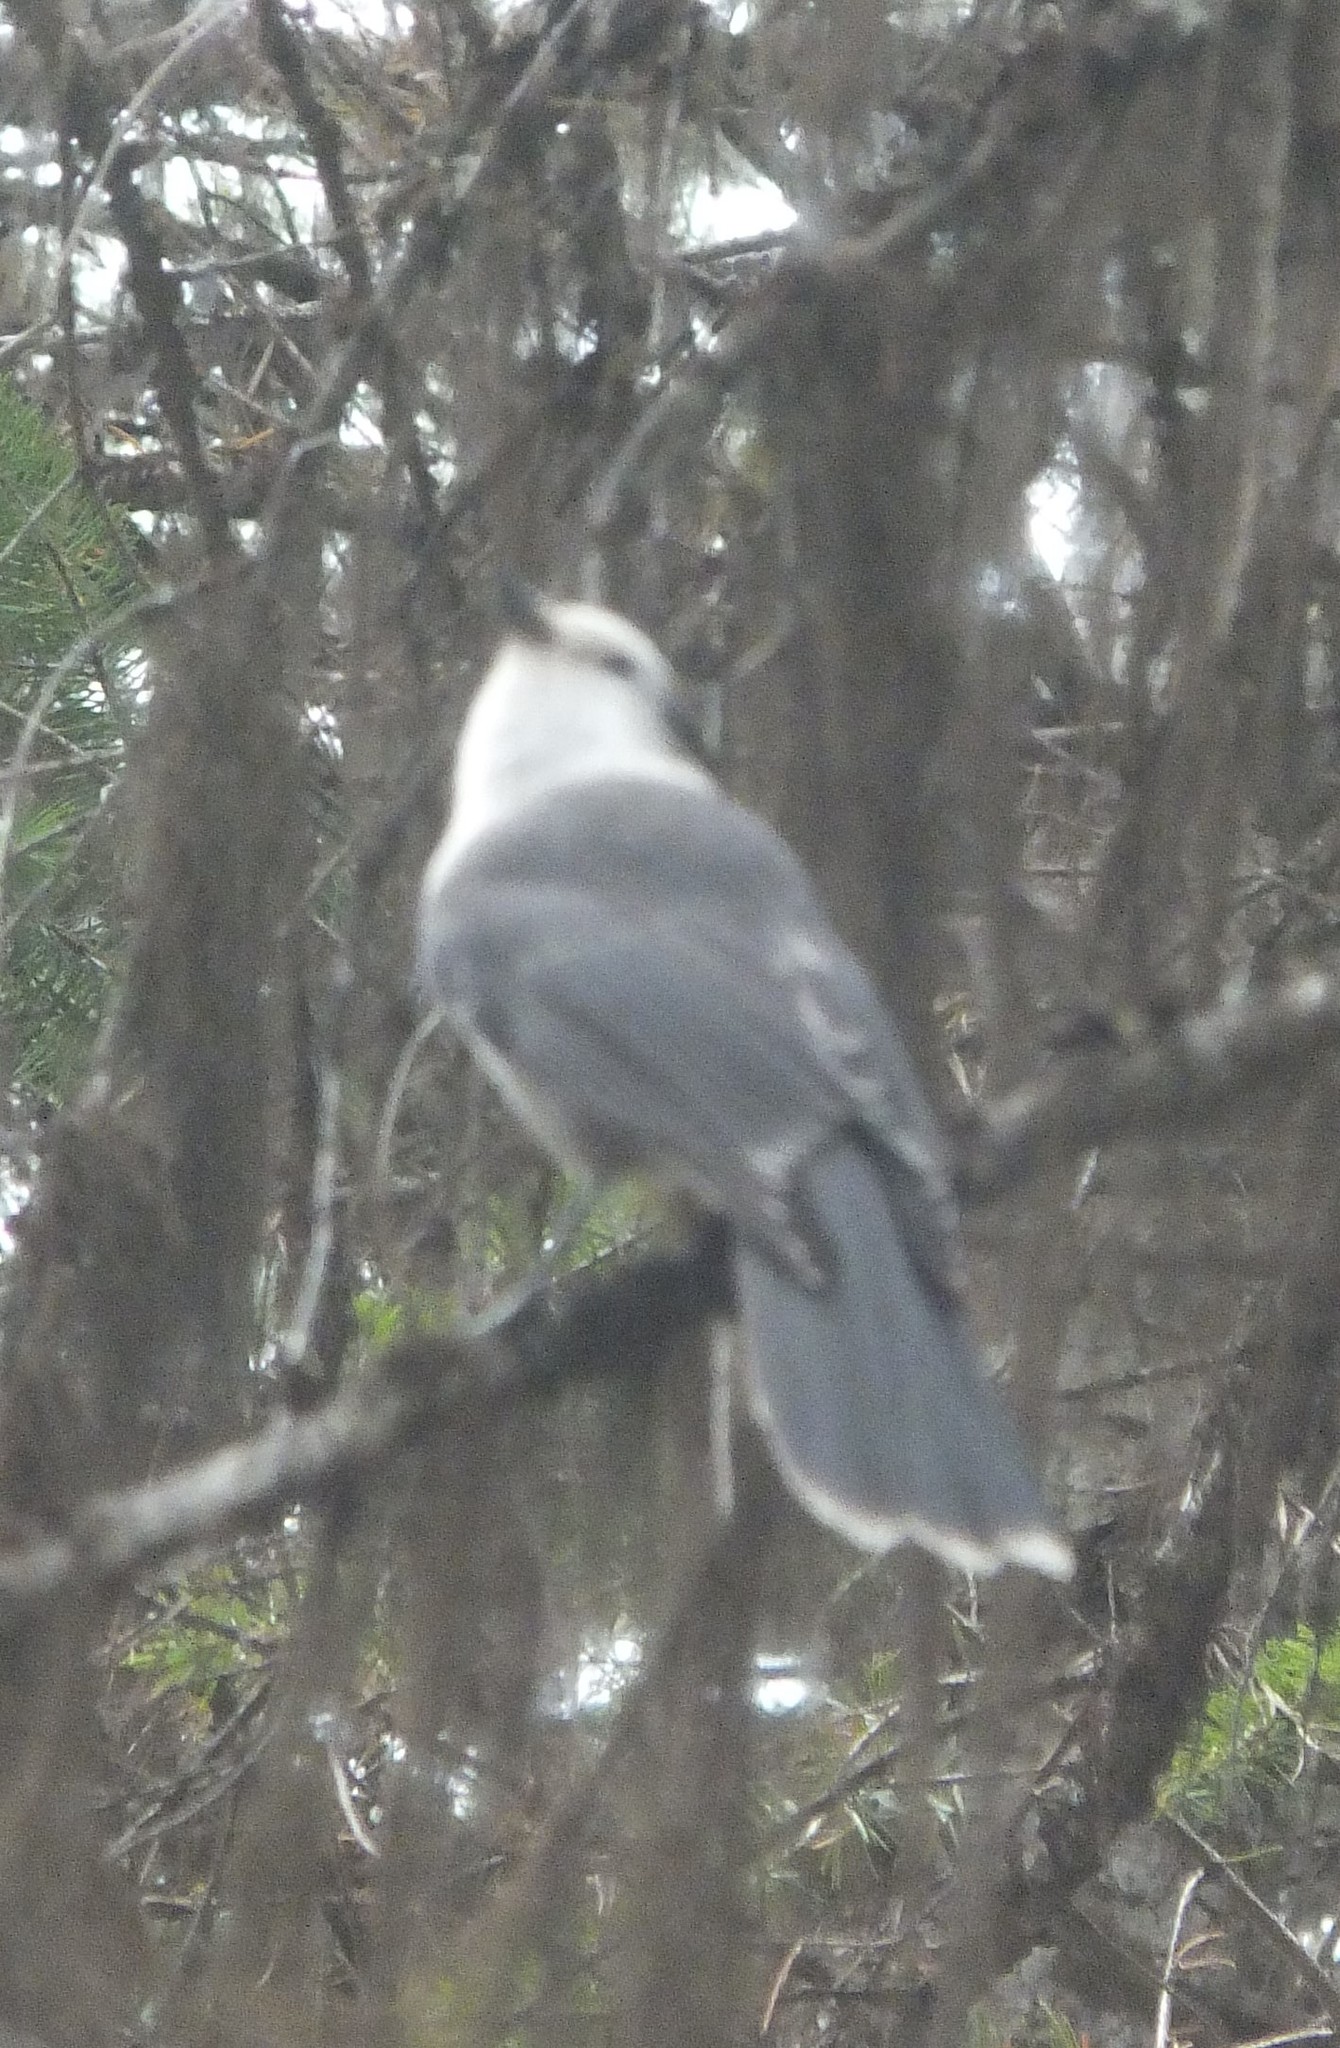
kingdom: Animalia
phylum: Chordata
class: Aves
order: Passeriformes
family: Corvidae
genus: Perisoreus
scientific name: Perisoreus canadensis
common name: Gray jay
